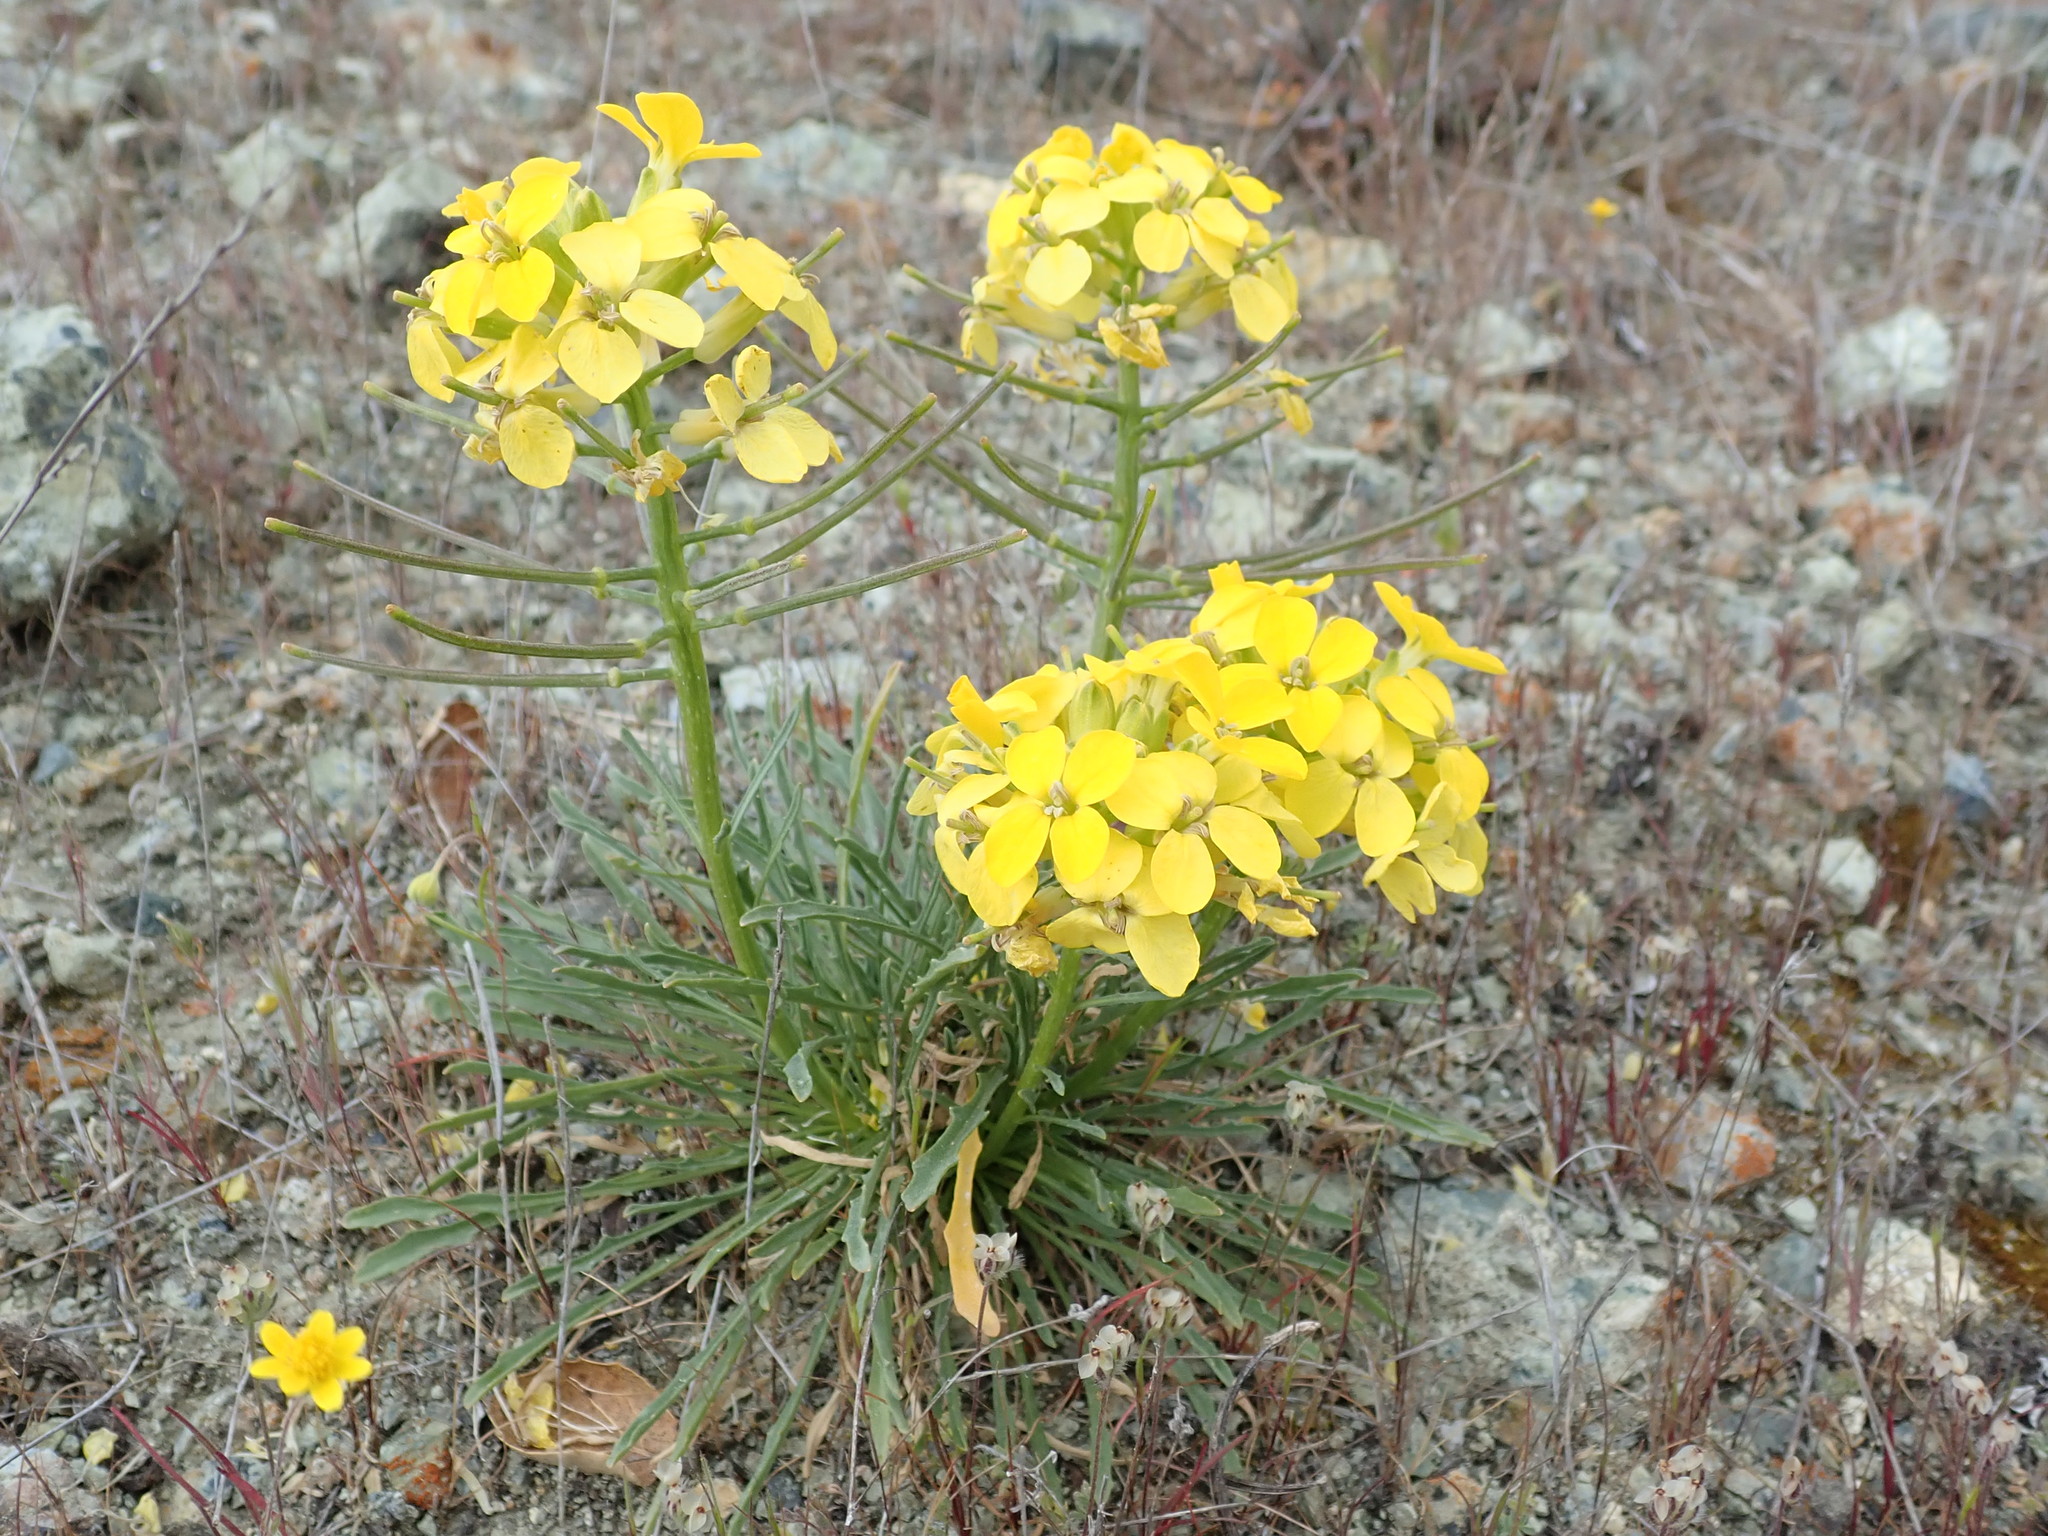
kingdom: Plantae
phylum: Tracheophyta
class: Magnoliopsida
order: Brassicales
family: Brassicaceae
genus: Erysimum
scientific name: Erysimum franciscanum
